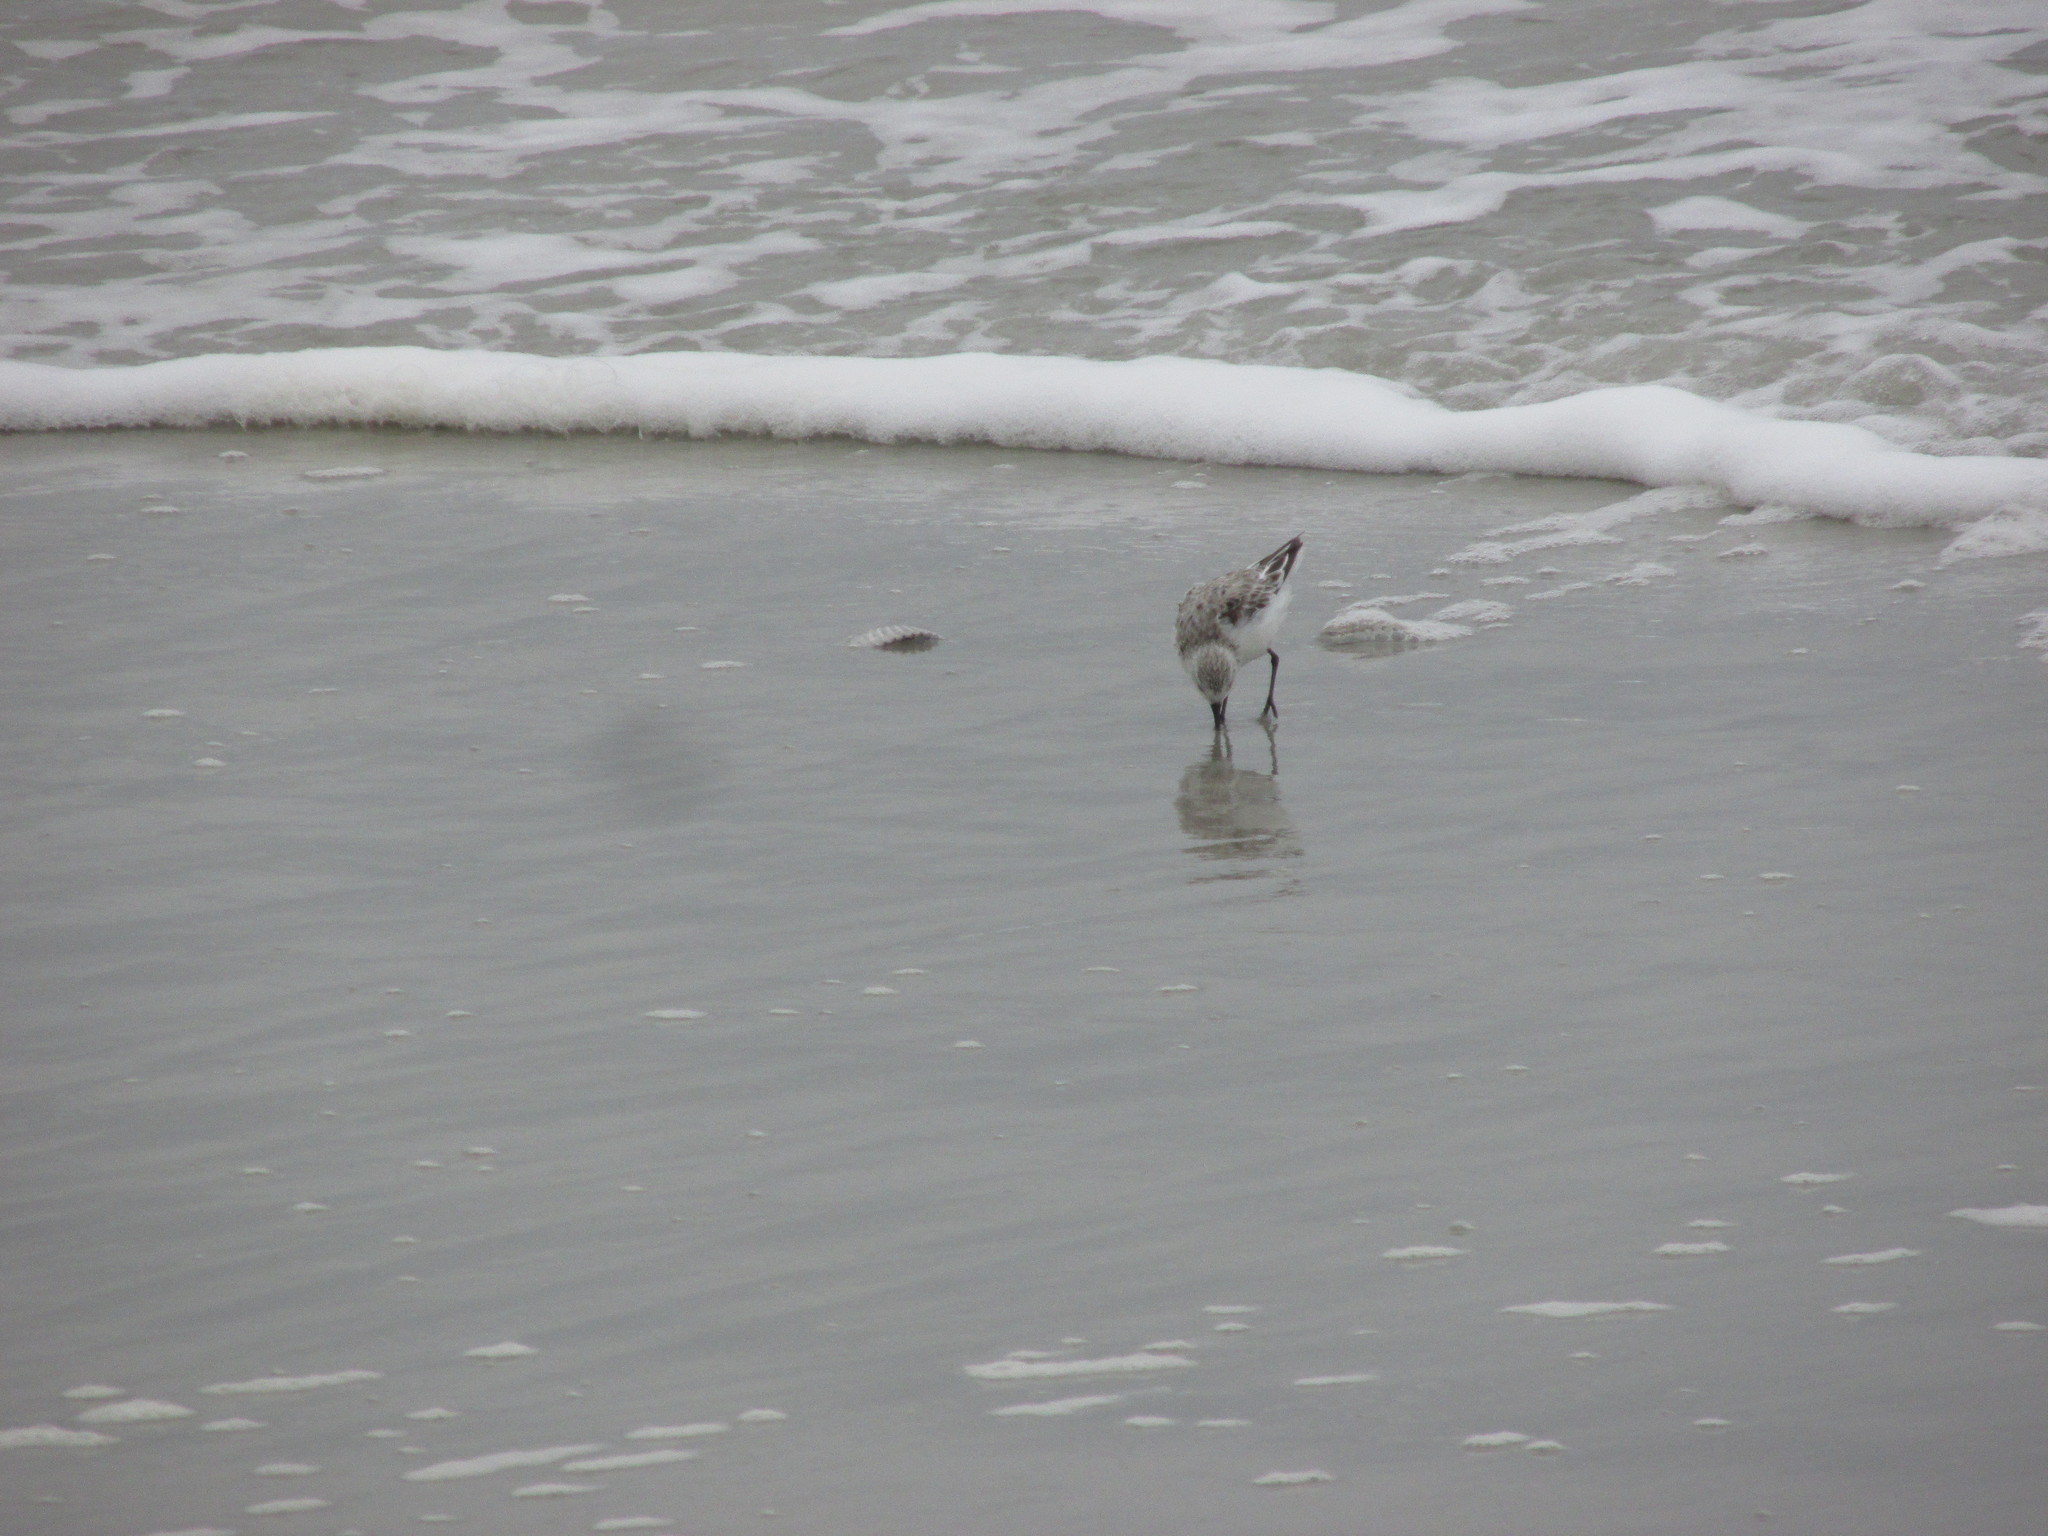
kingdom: Animalia
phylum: Chordata
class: Aves
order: Charadriiformes
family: Scolopacidae
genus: Calidris
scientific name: Calidris alba
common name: Sanderling
